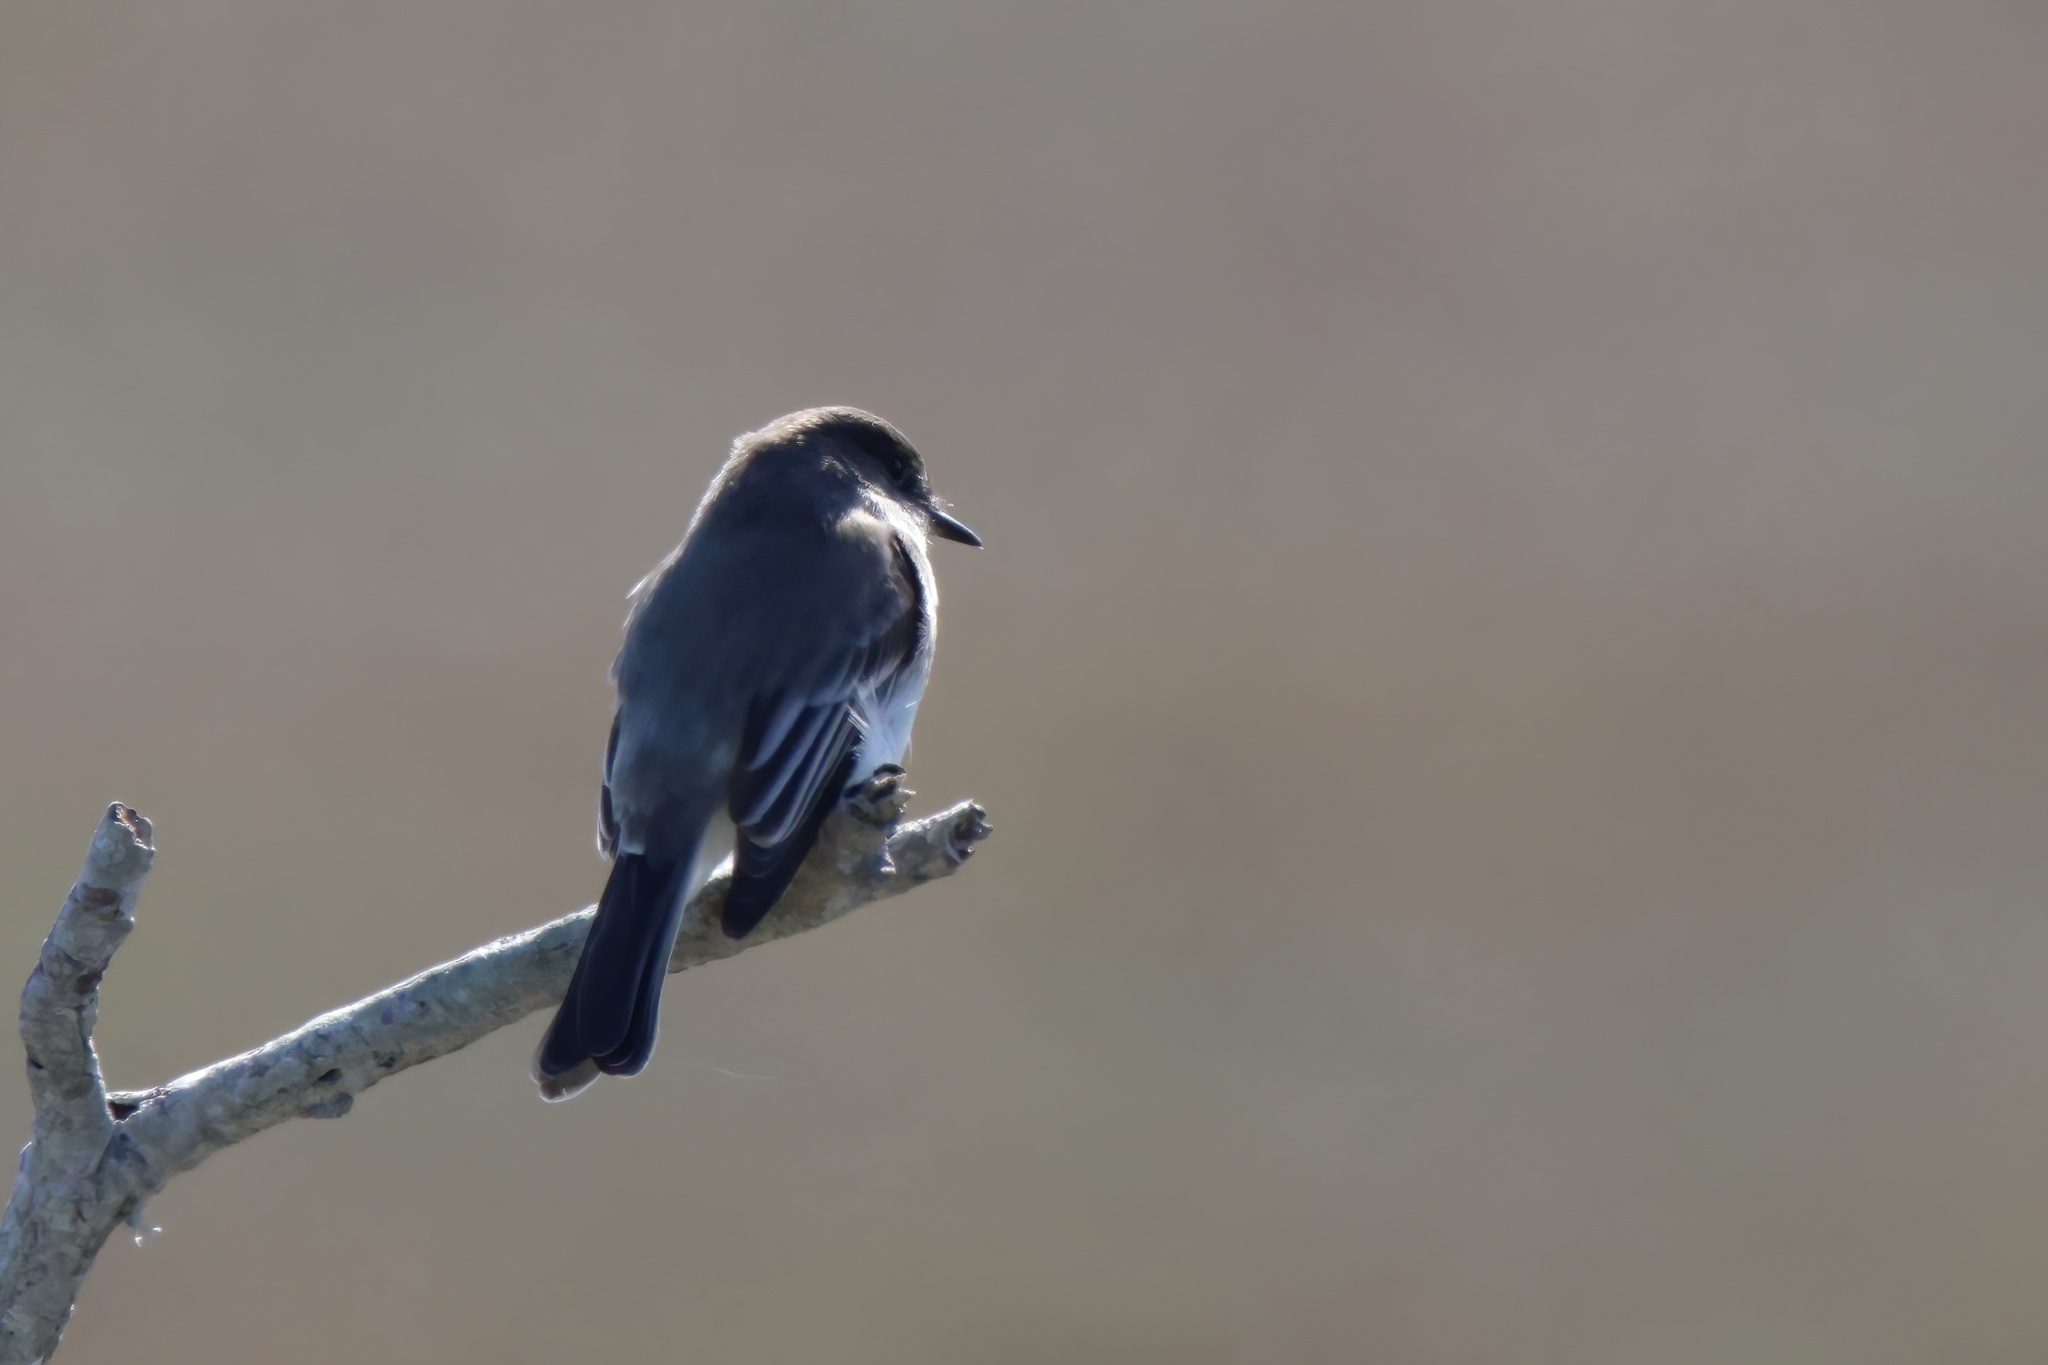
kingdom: Animalia
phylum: Chordata
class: Aves
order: Passeriformes
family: Tyrannidae
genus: Sayornis
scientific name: Sayornis phoebe
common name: Eastern phoebe
